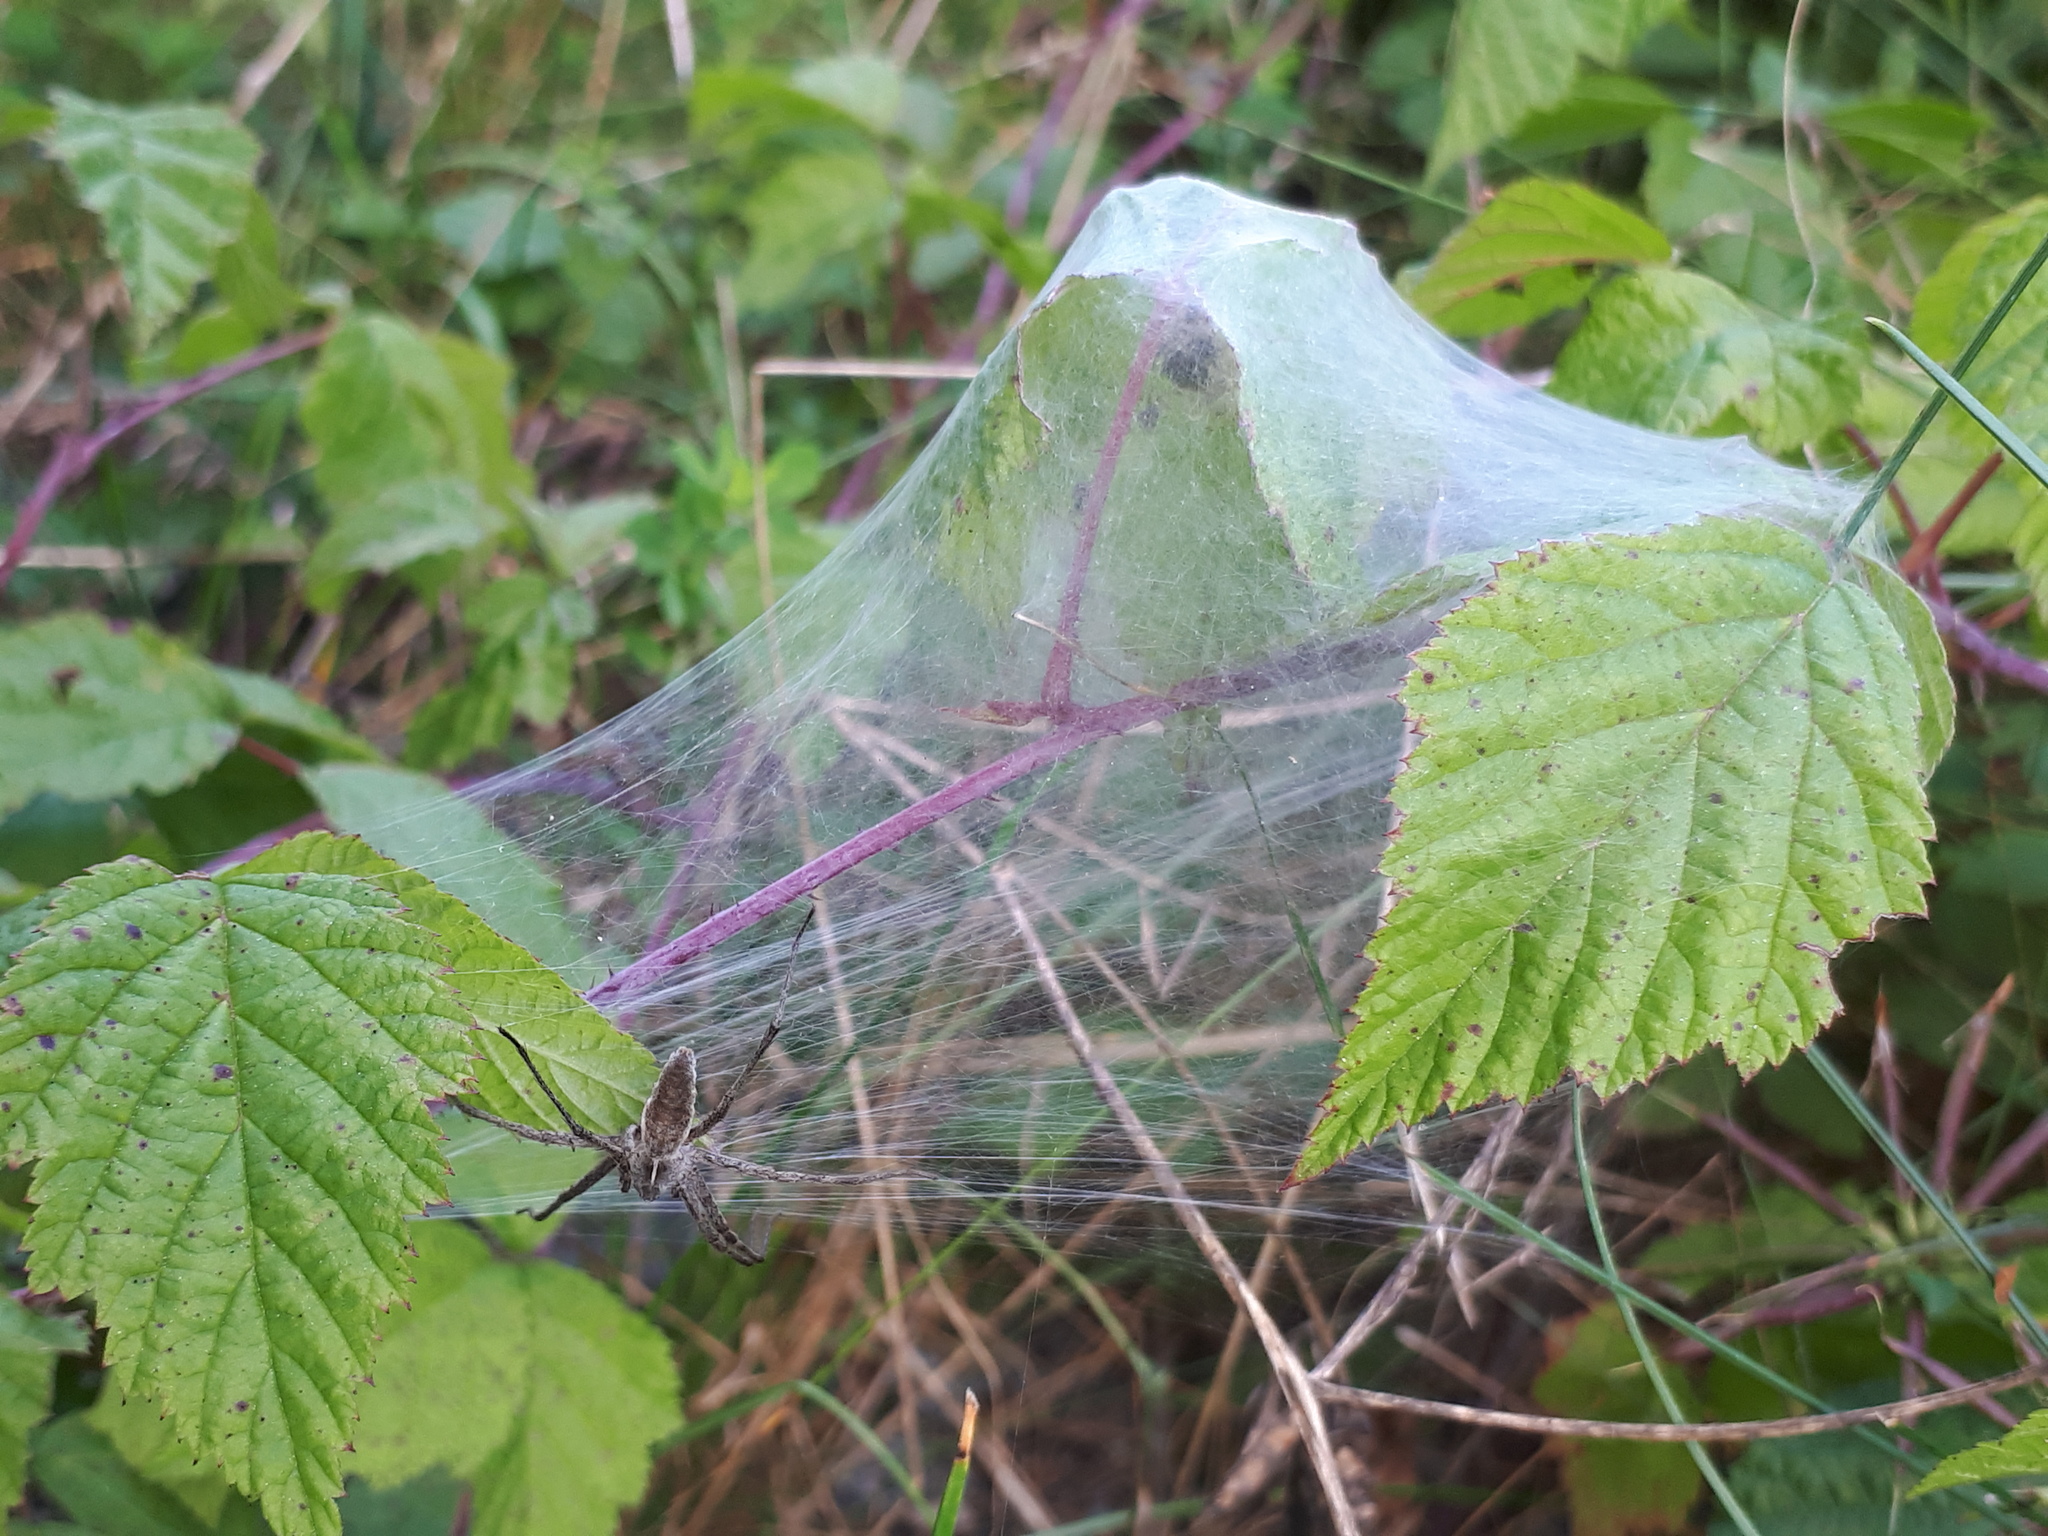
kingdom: Animalia
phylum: Arthropoda
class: Arachnida
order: Araneae
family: Pisauridae
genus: Pisaura
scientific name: Pisaura mirabilis
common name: Tent spider
